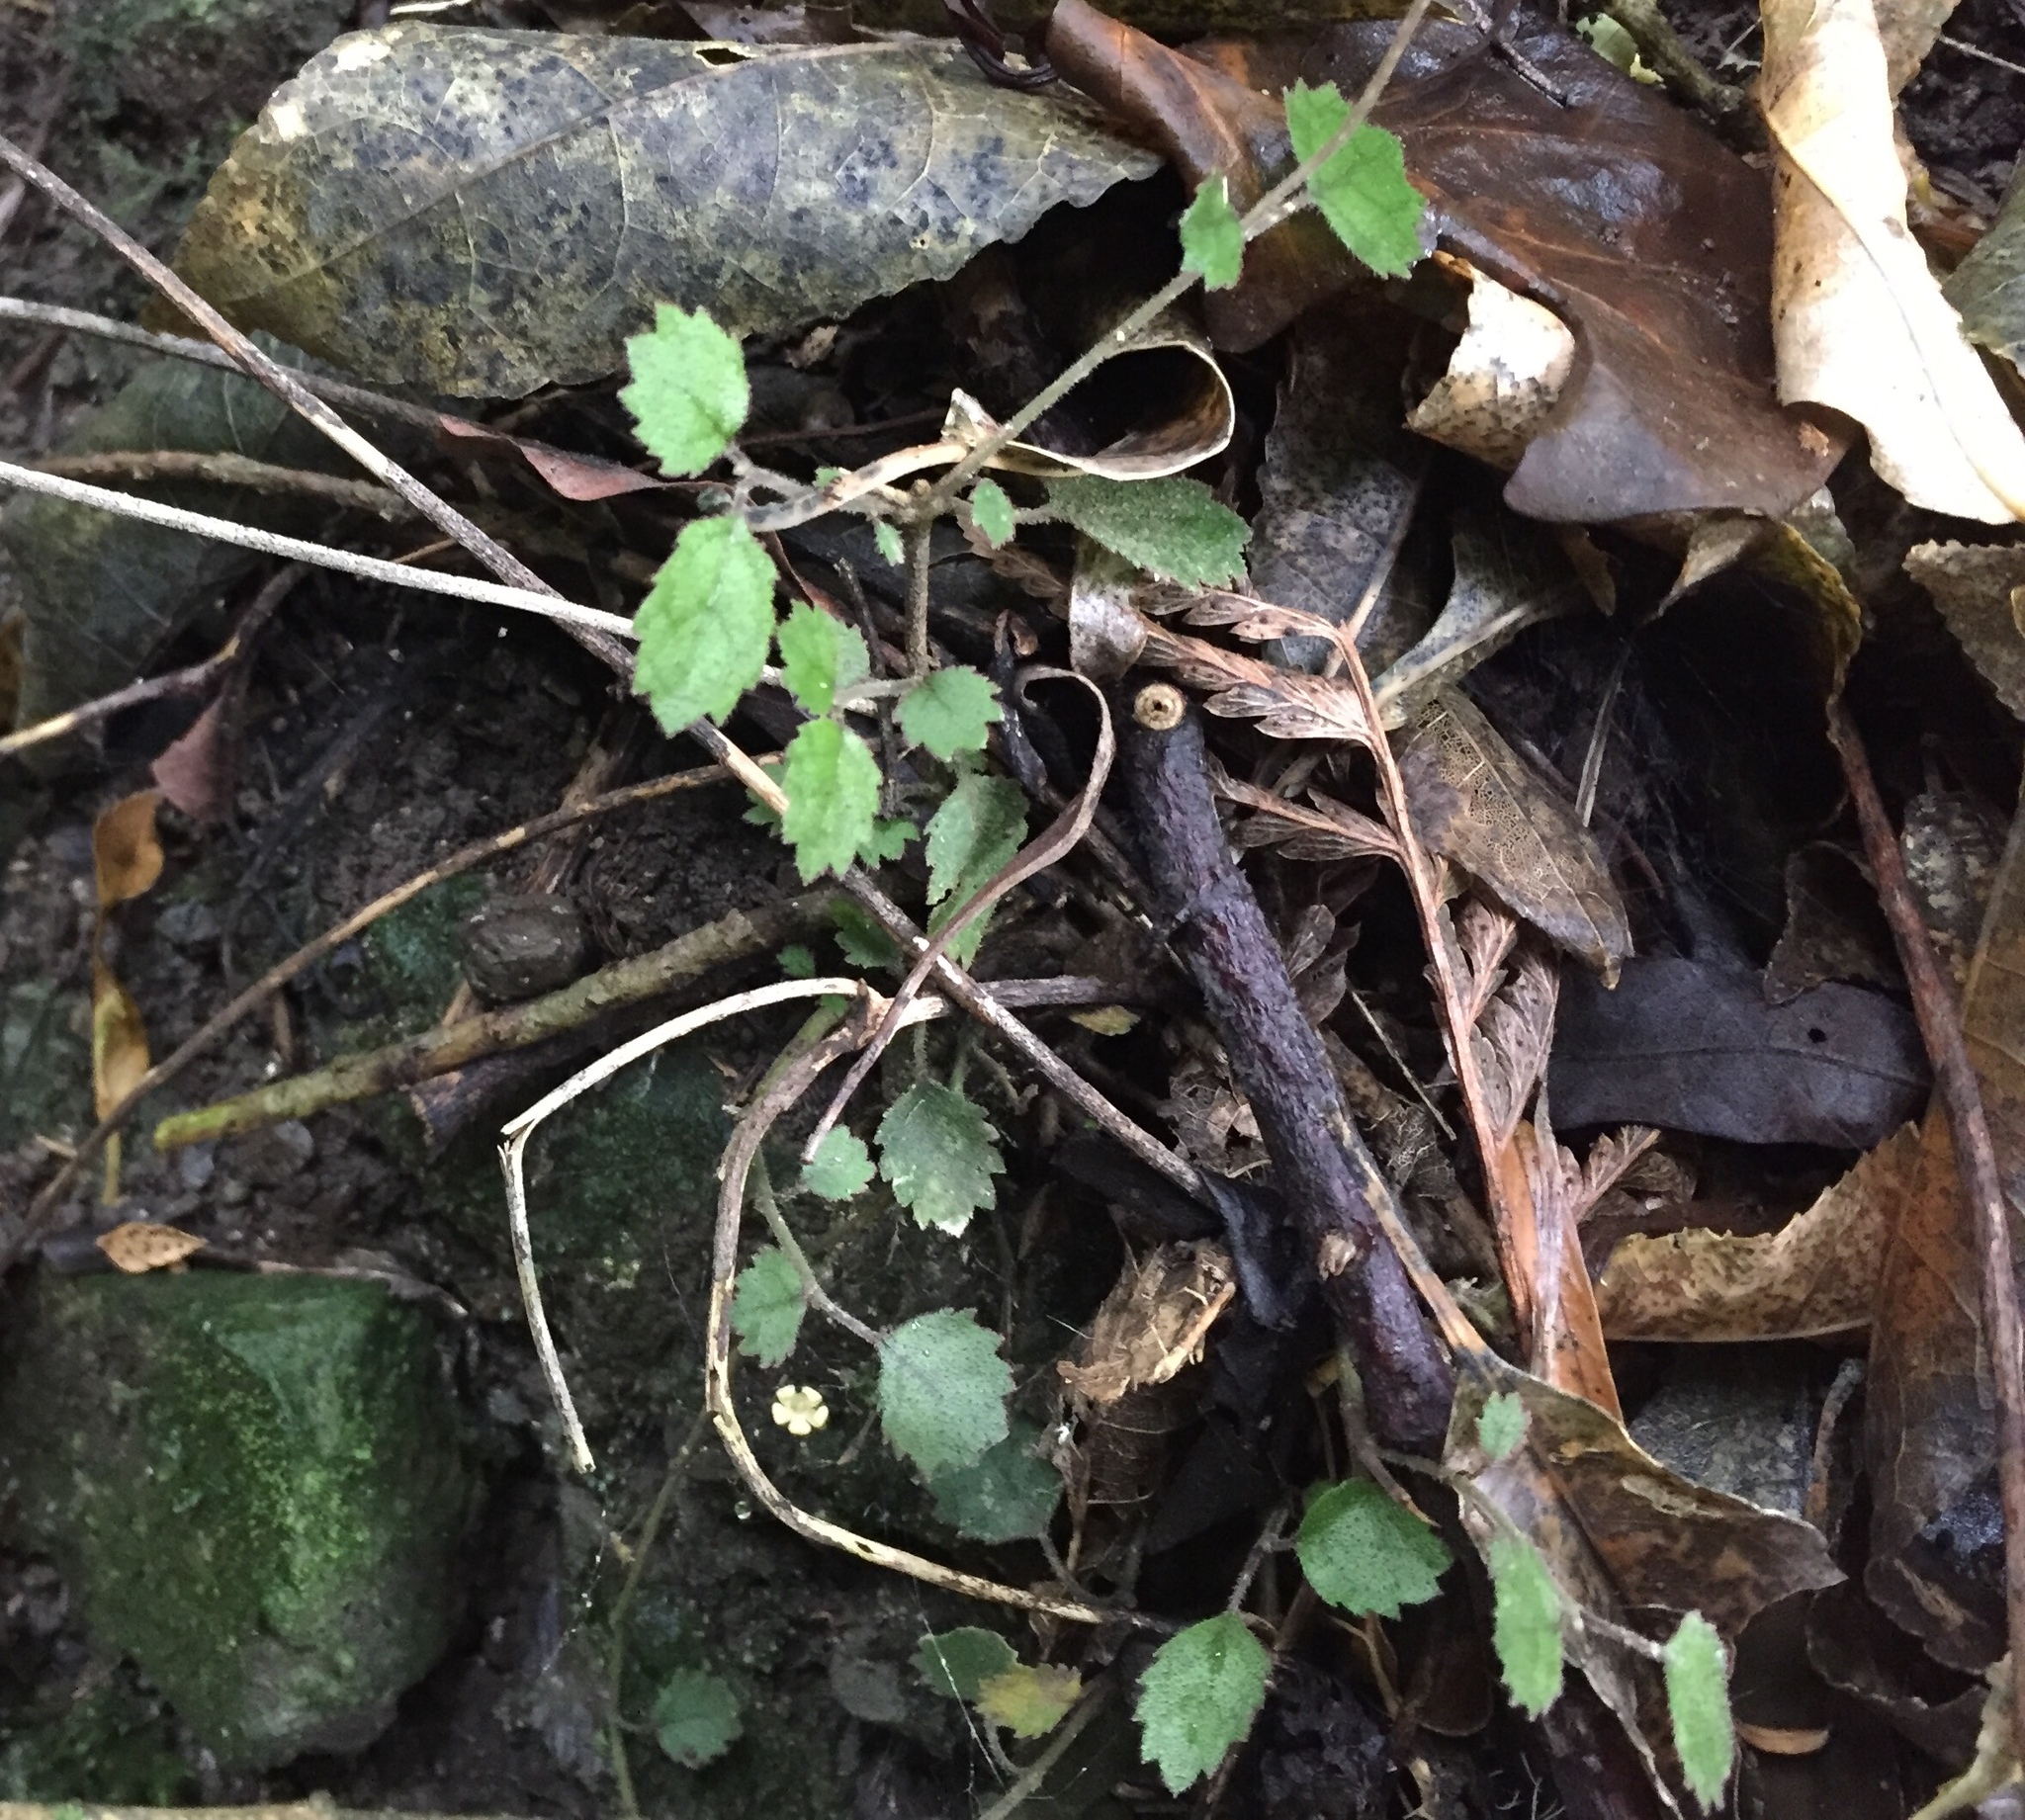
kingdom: Plantae
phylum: Tracheophyta
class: Magnoliopsida
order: Lamiales
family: Gesneriaceae
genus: Rhabdothamnus
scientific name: Rhabdothamnus solandri
